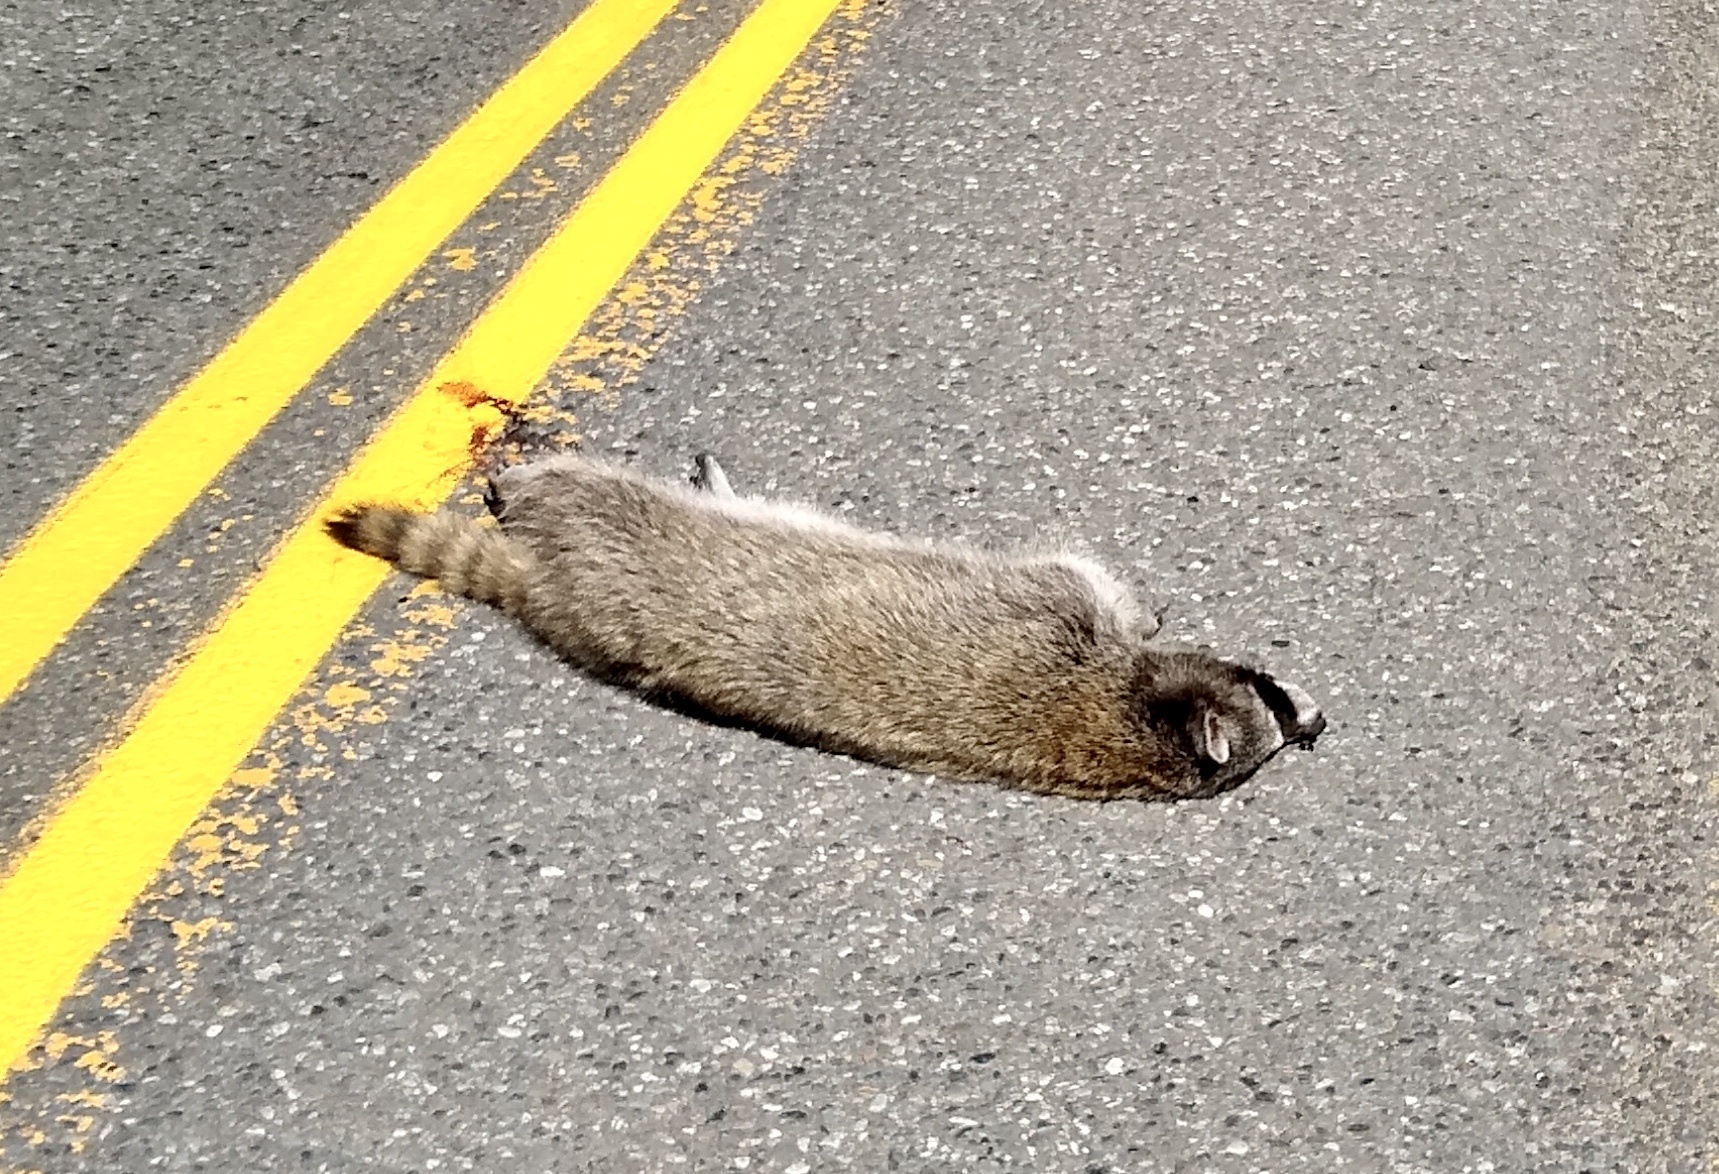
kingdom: Animalia
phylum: Chordata
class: Mammalia
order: Carnivora
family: Procyonidae
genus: Procyon
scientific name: Procyon lotor
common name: Raccoon
